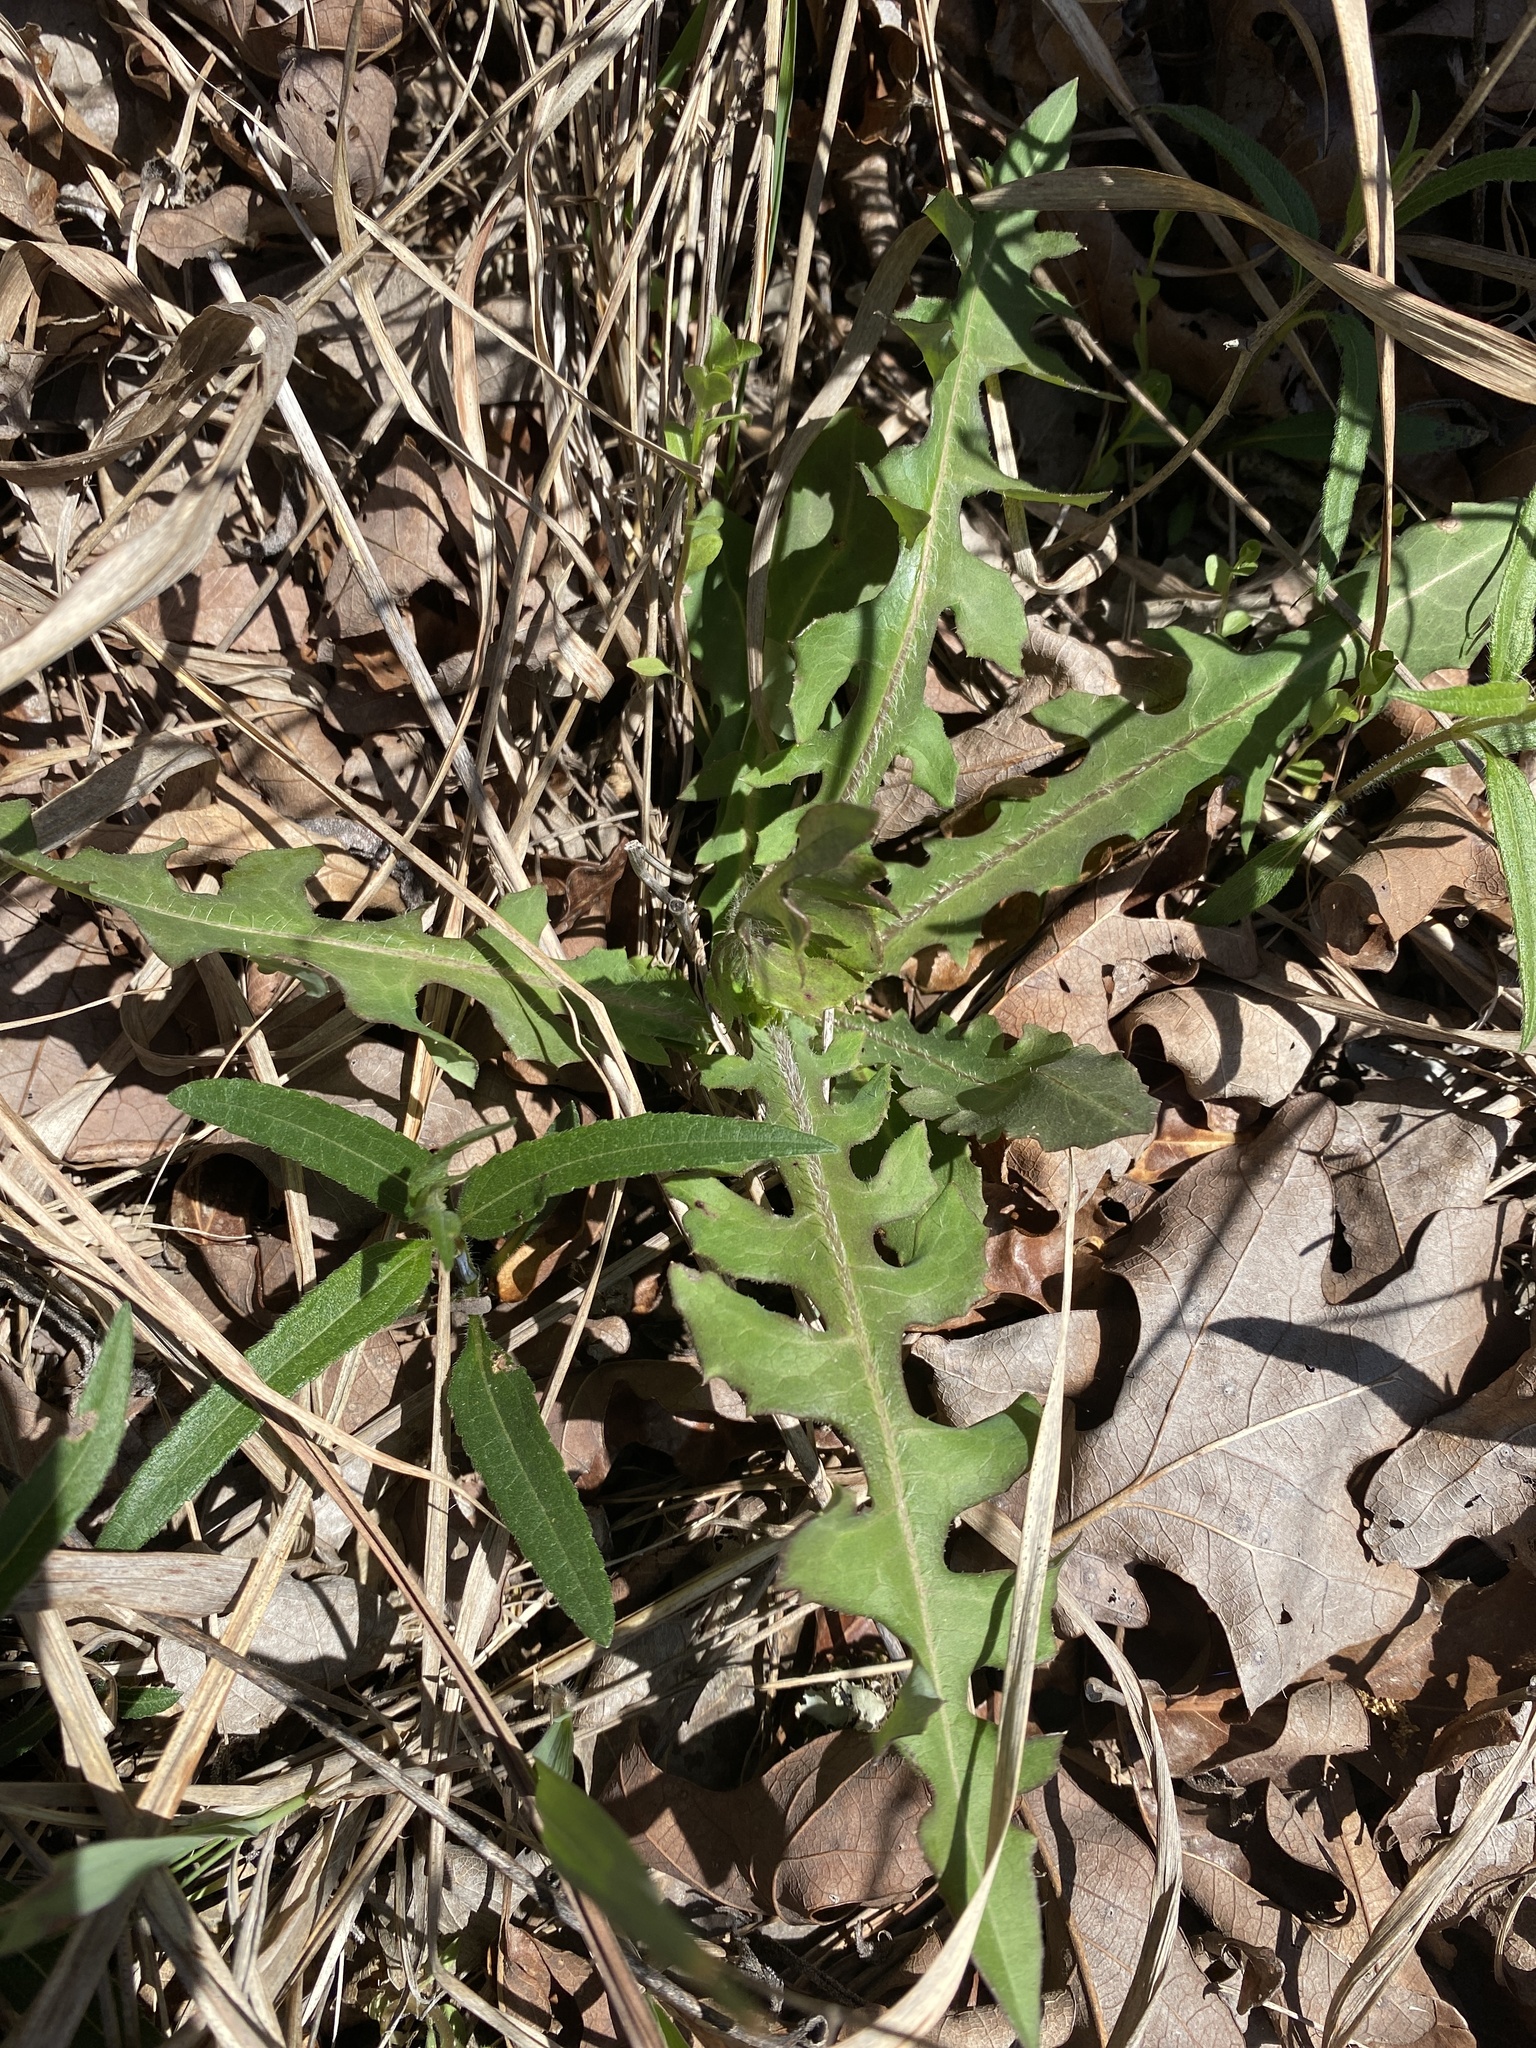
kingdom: Plantae
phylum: Tracheophyta
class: Magnoliopsida
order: Asterales
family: Asteraceae
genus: Lactuca
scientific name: Lactuca hirsuta
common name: Hairy lettuce
